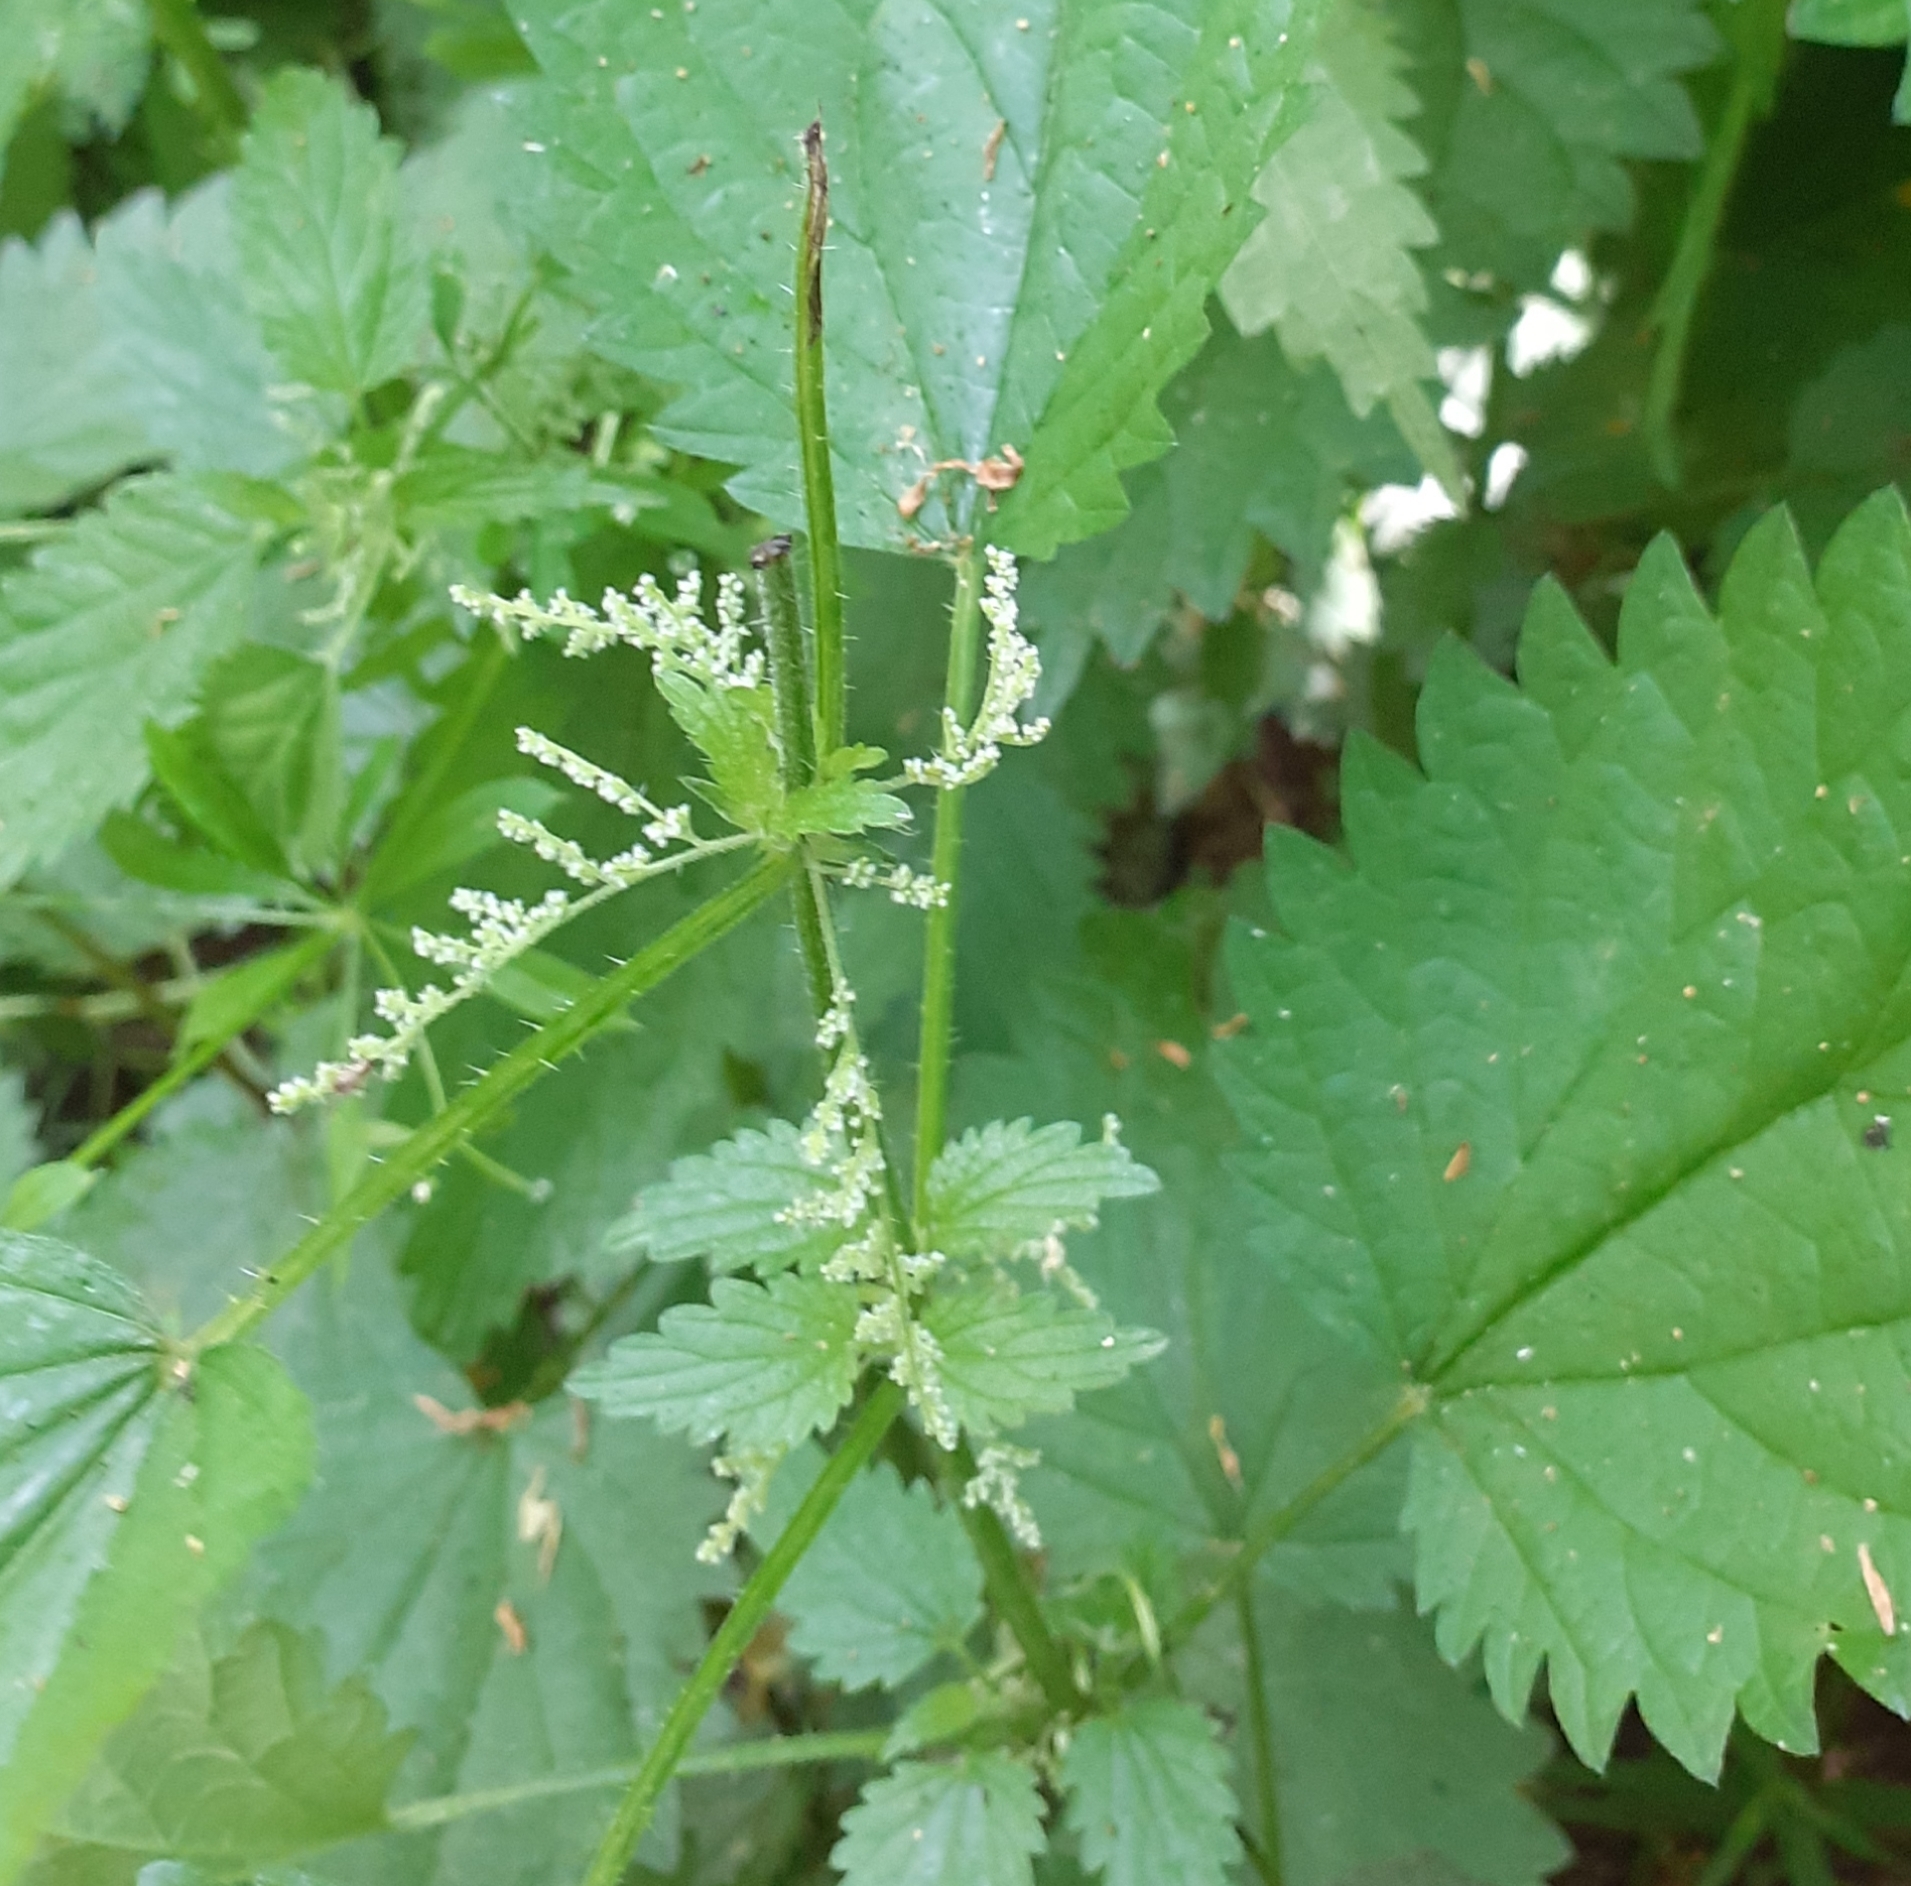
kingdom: Plantae
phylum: Tracheophyta
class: Magnoliopsida
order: Rosales
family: Urticaceae
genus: Urtica
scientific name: Urtica dioica
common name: Common nettle
